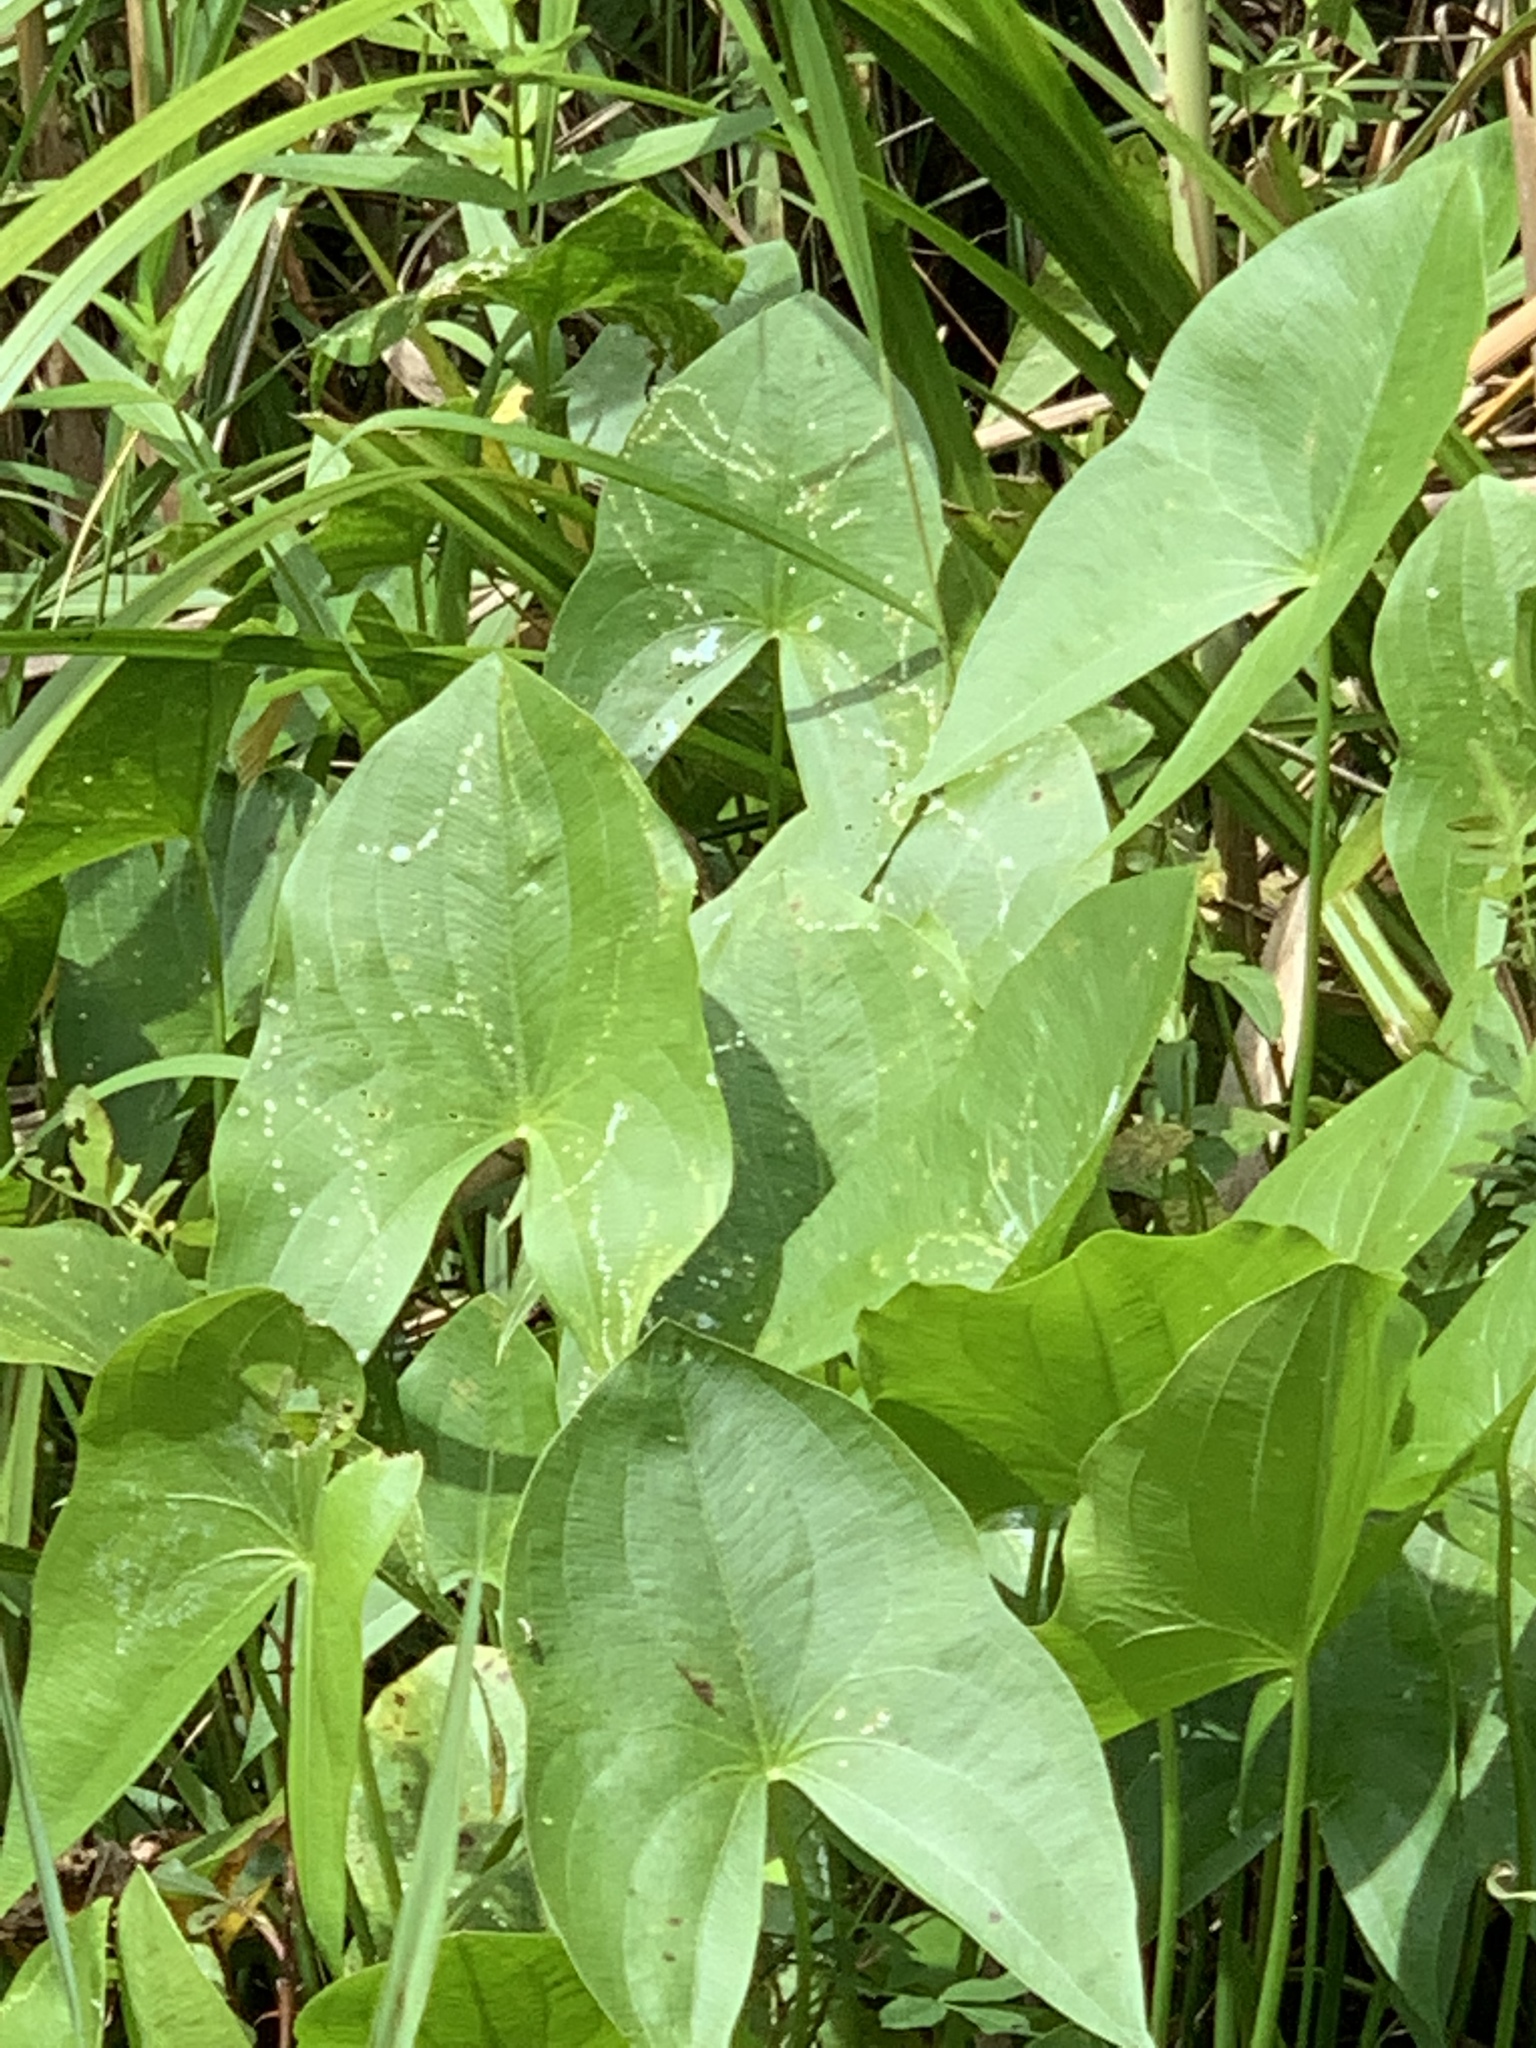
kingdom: Plantae
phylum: Tracheophyta
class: Liliopsida
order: Alismatales
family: Alismataceae
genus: Sagittaria
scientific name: Sagittaria latifolia
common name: Duck-potato
